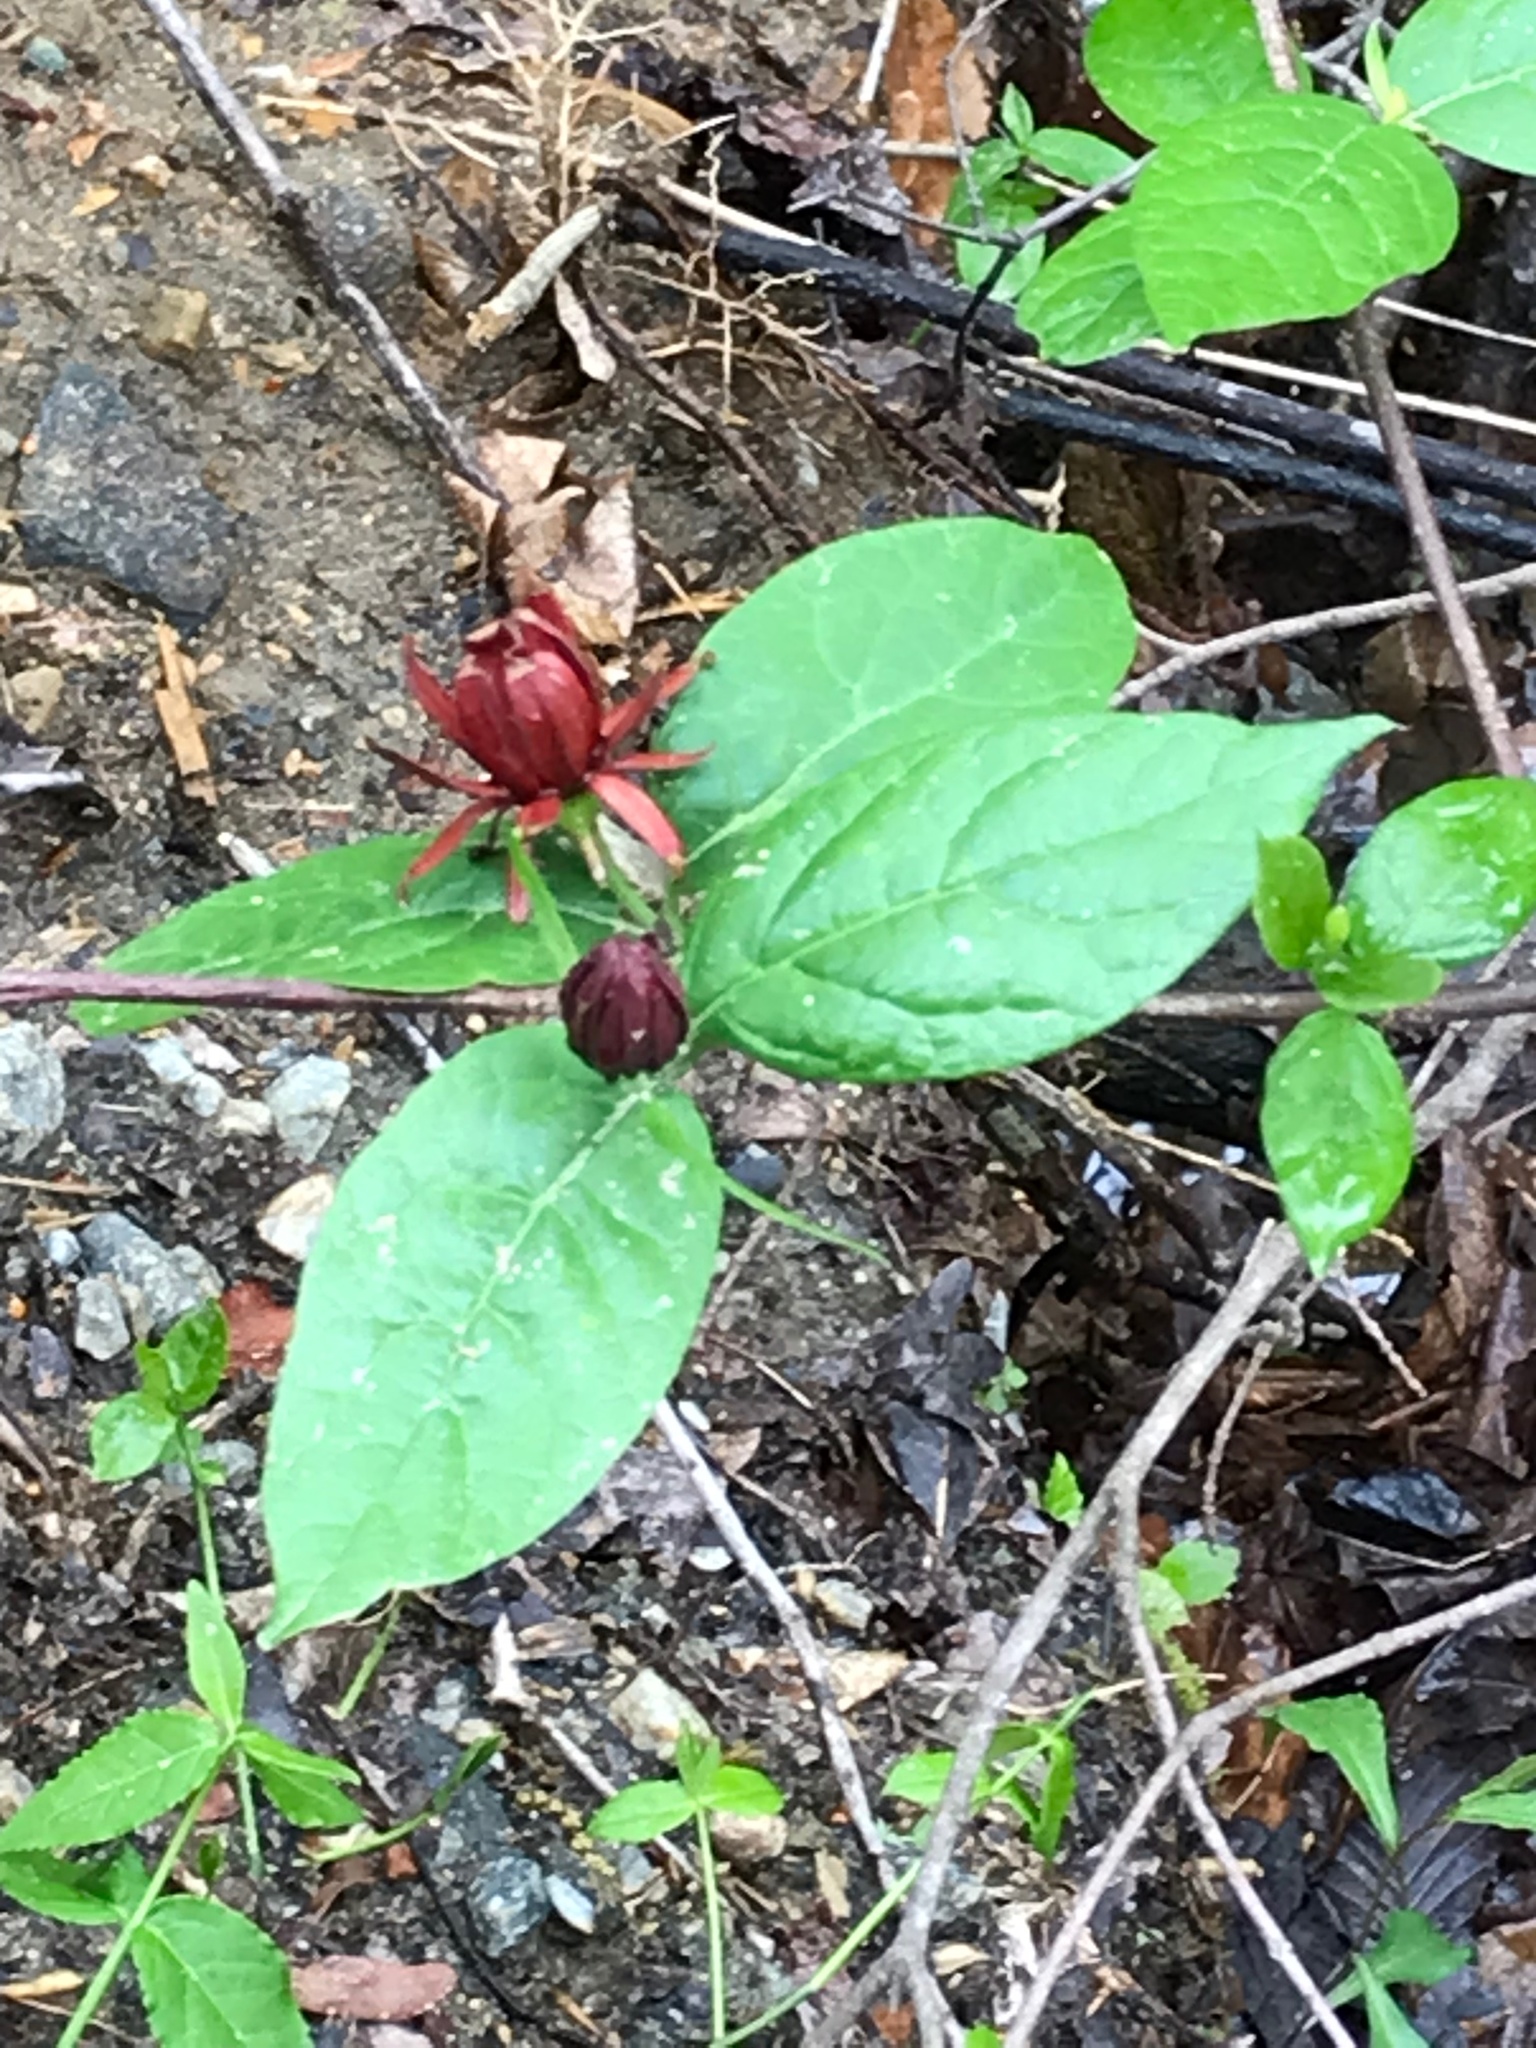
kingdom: Plantae
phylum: Tracheophyta
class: Magnoliopsida
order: Laurales
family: Calycanthaceae
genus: Calycanthus
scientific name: Calycanthus floridus
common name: Carolina-allspice
